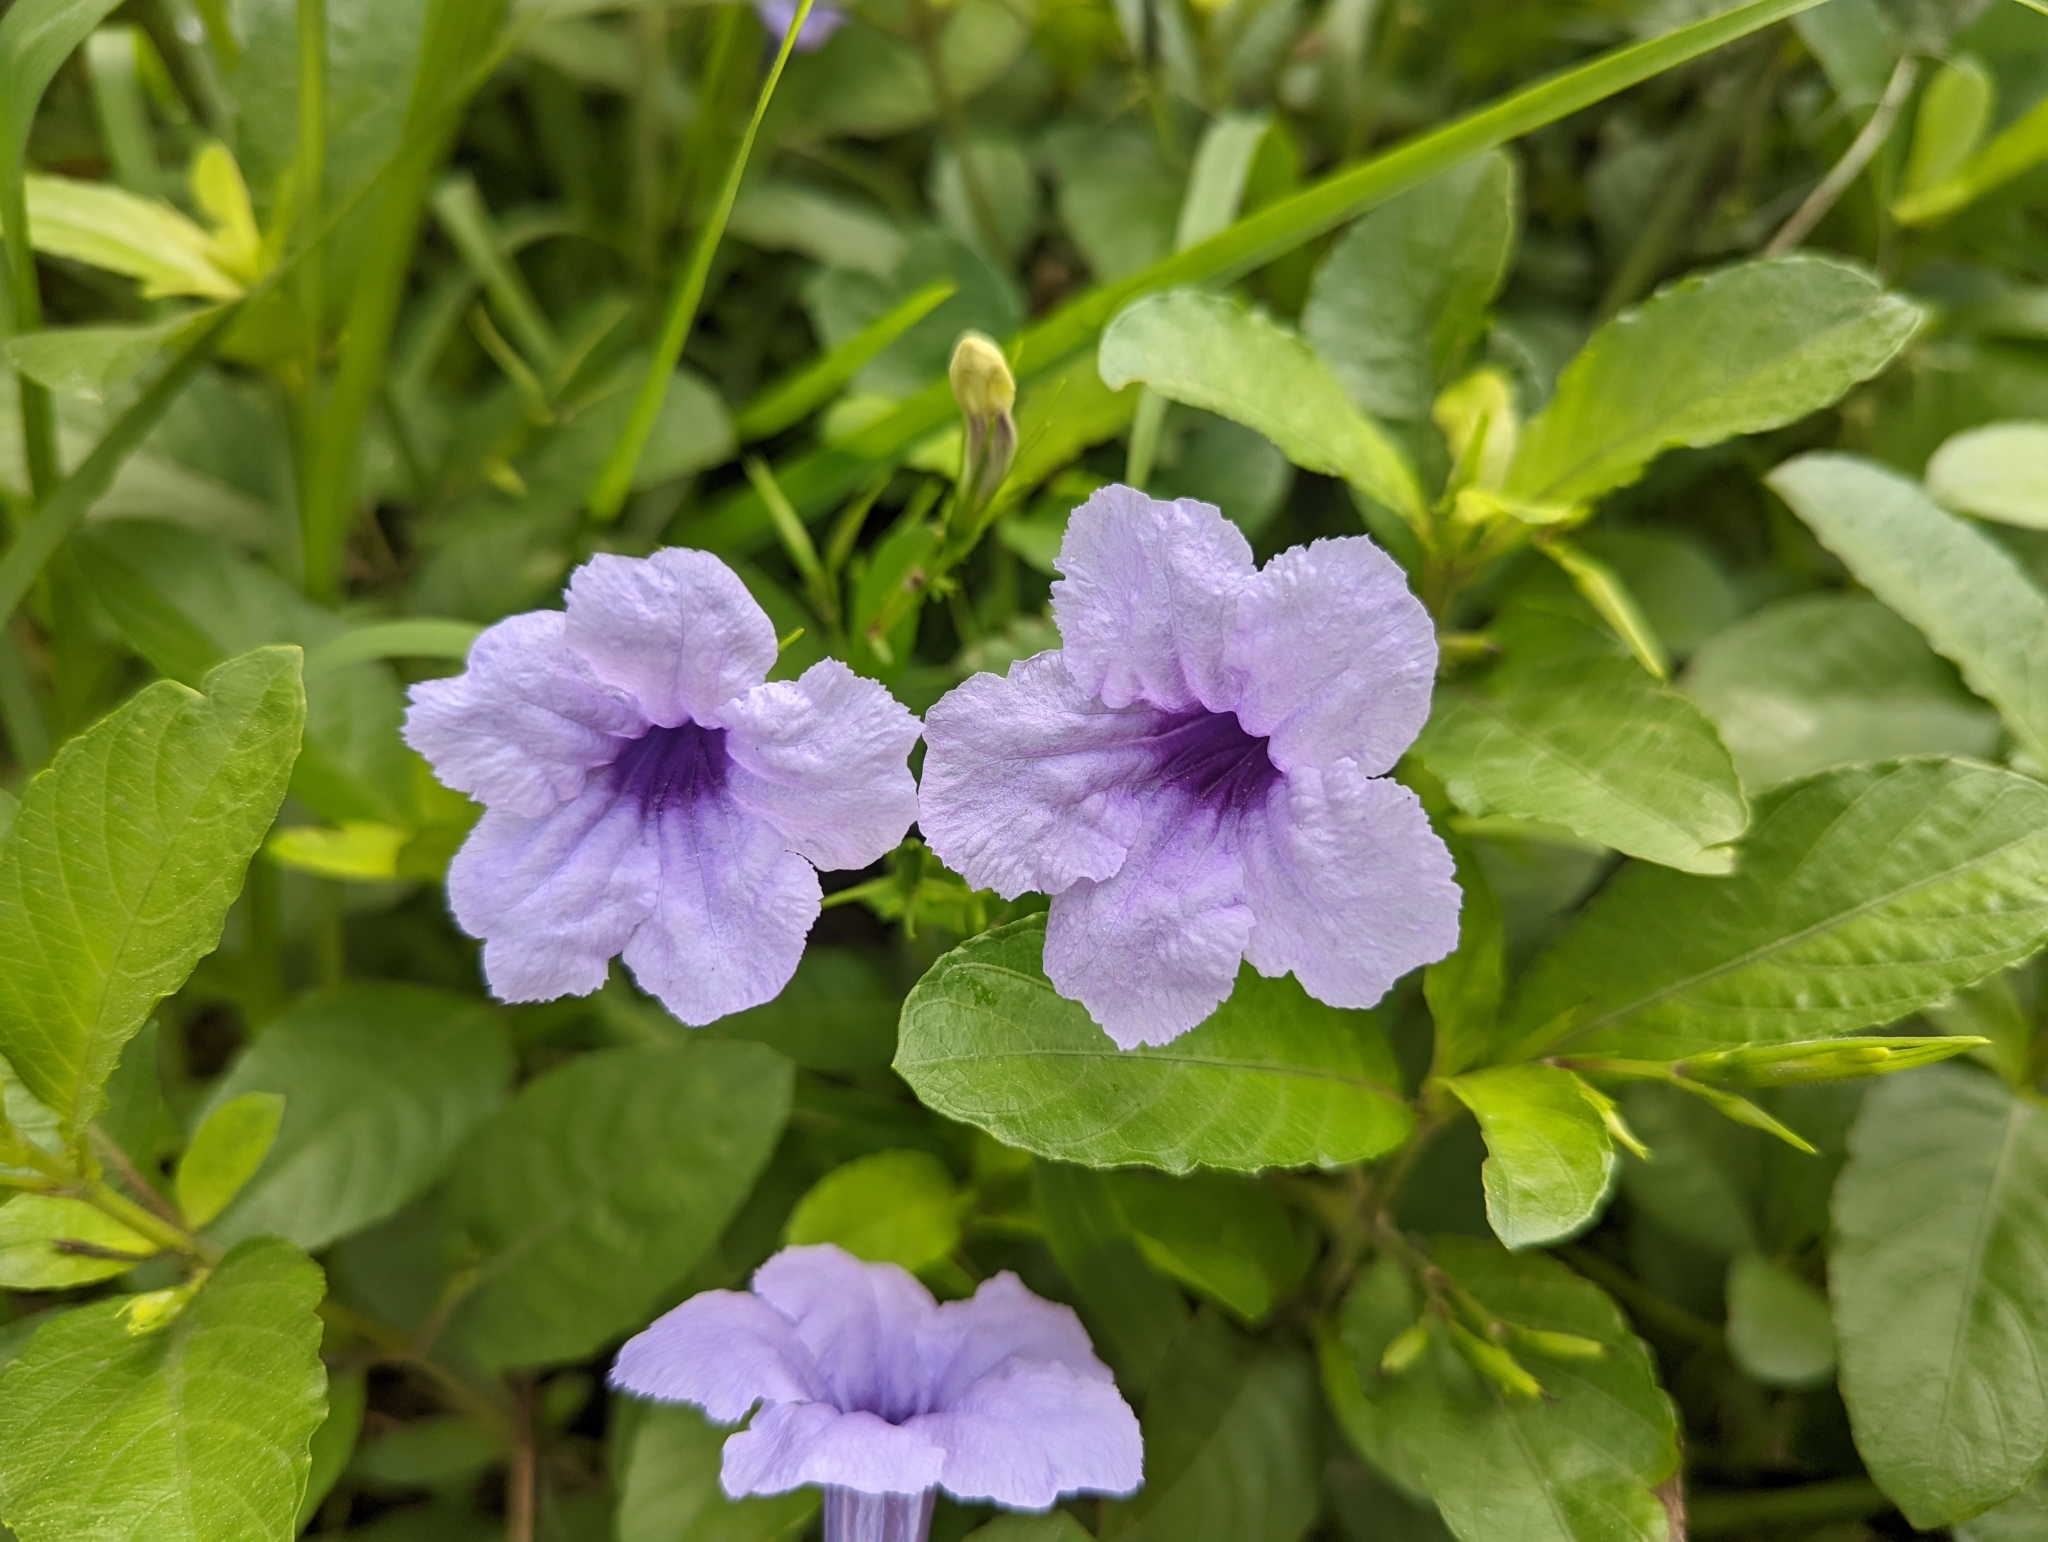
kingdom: Plantae
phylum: Tracheophyta
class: Magnoliopsida
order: Lamiales
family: Acanthaceae
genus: Ruellia
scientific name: Ruellia tuberosa
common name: Devil's bit
